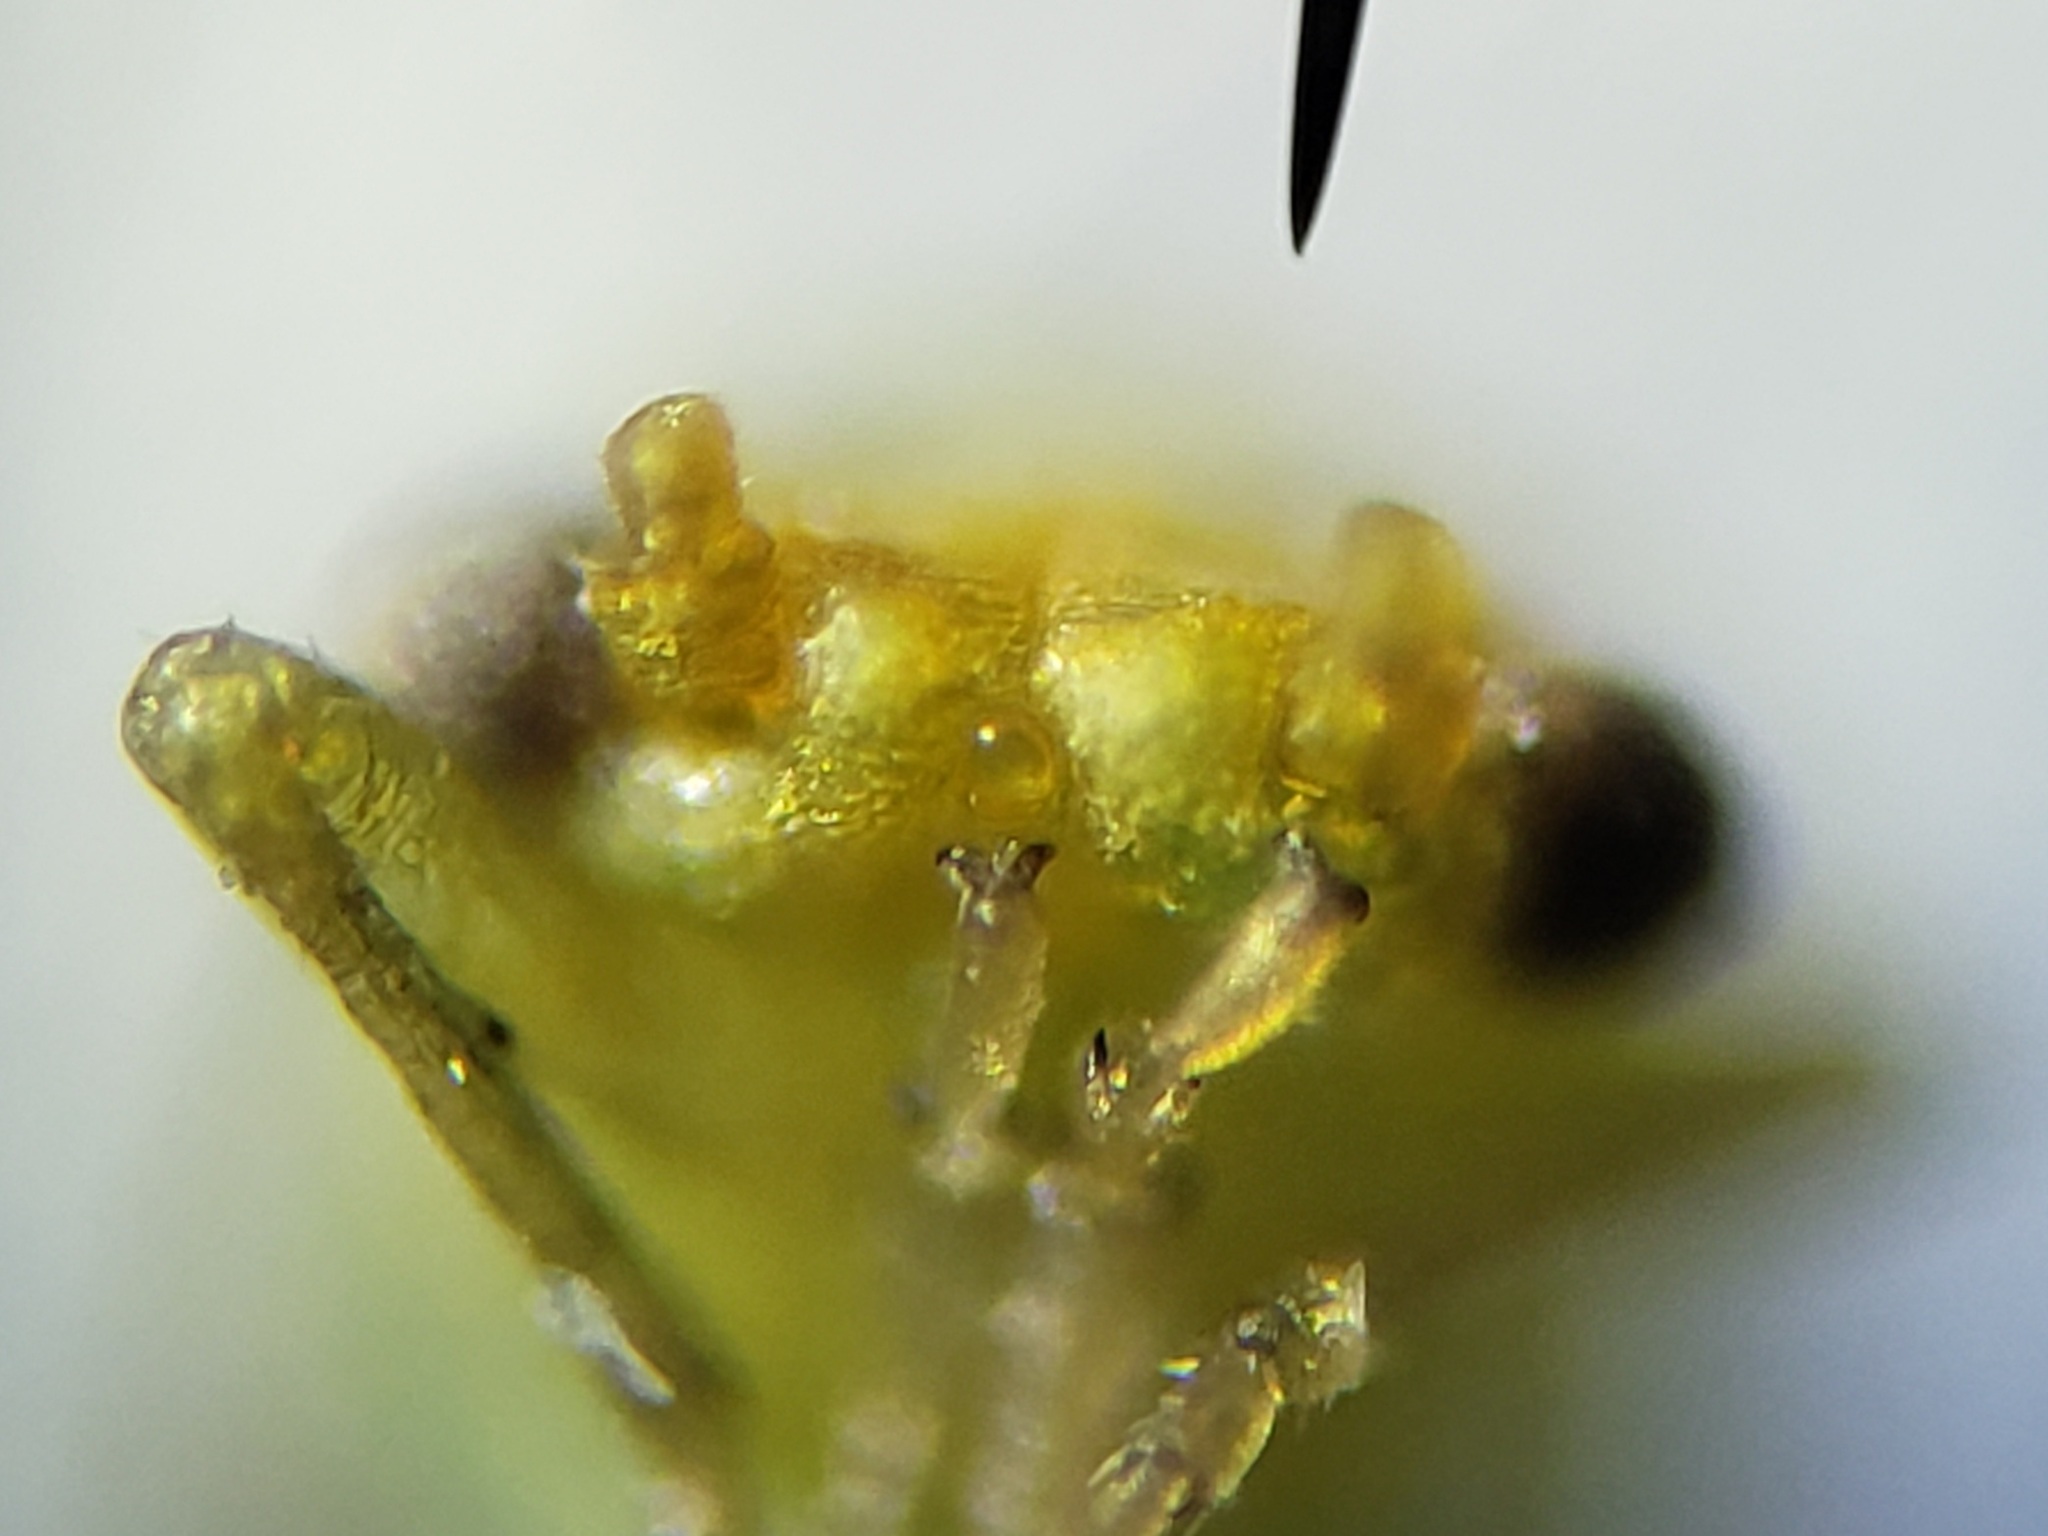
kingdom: Animalia
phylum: Arthropoda
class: Insecta
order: Hemiptera
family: Aphalaridae
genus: Craspedolepta
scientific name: Craspedolepta euthamiae
